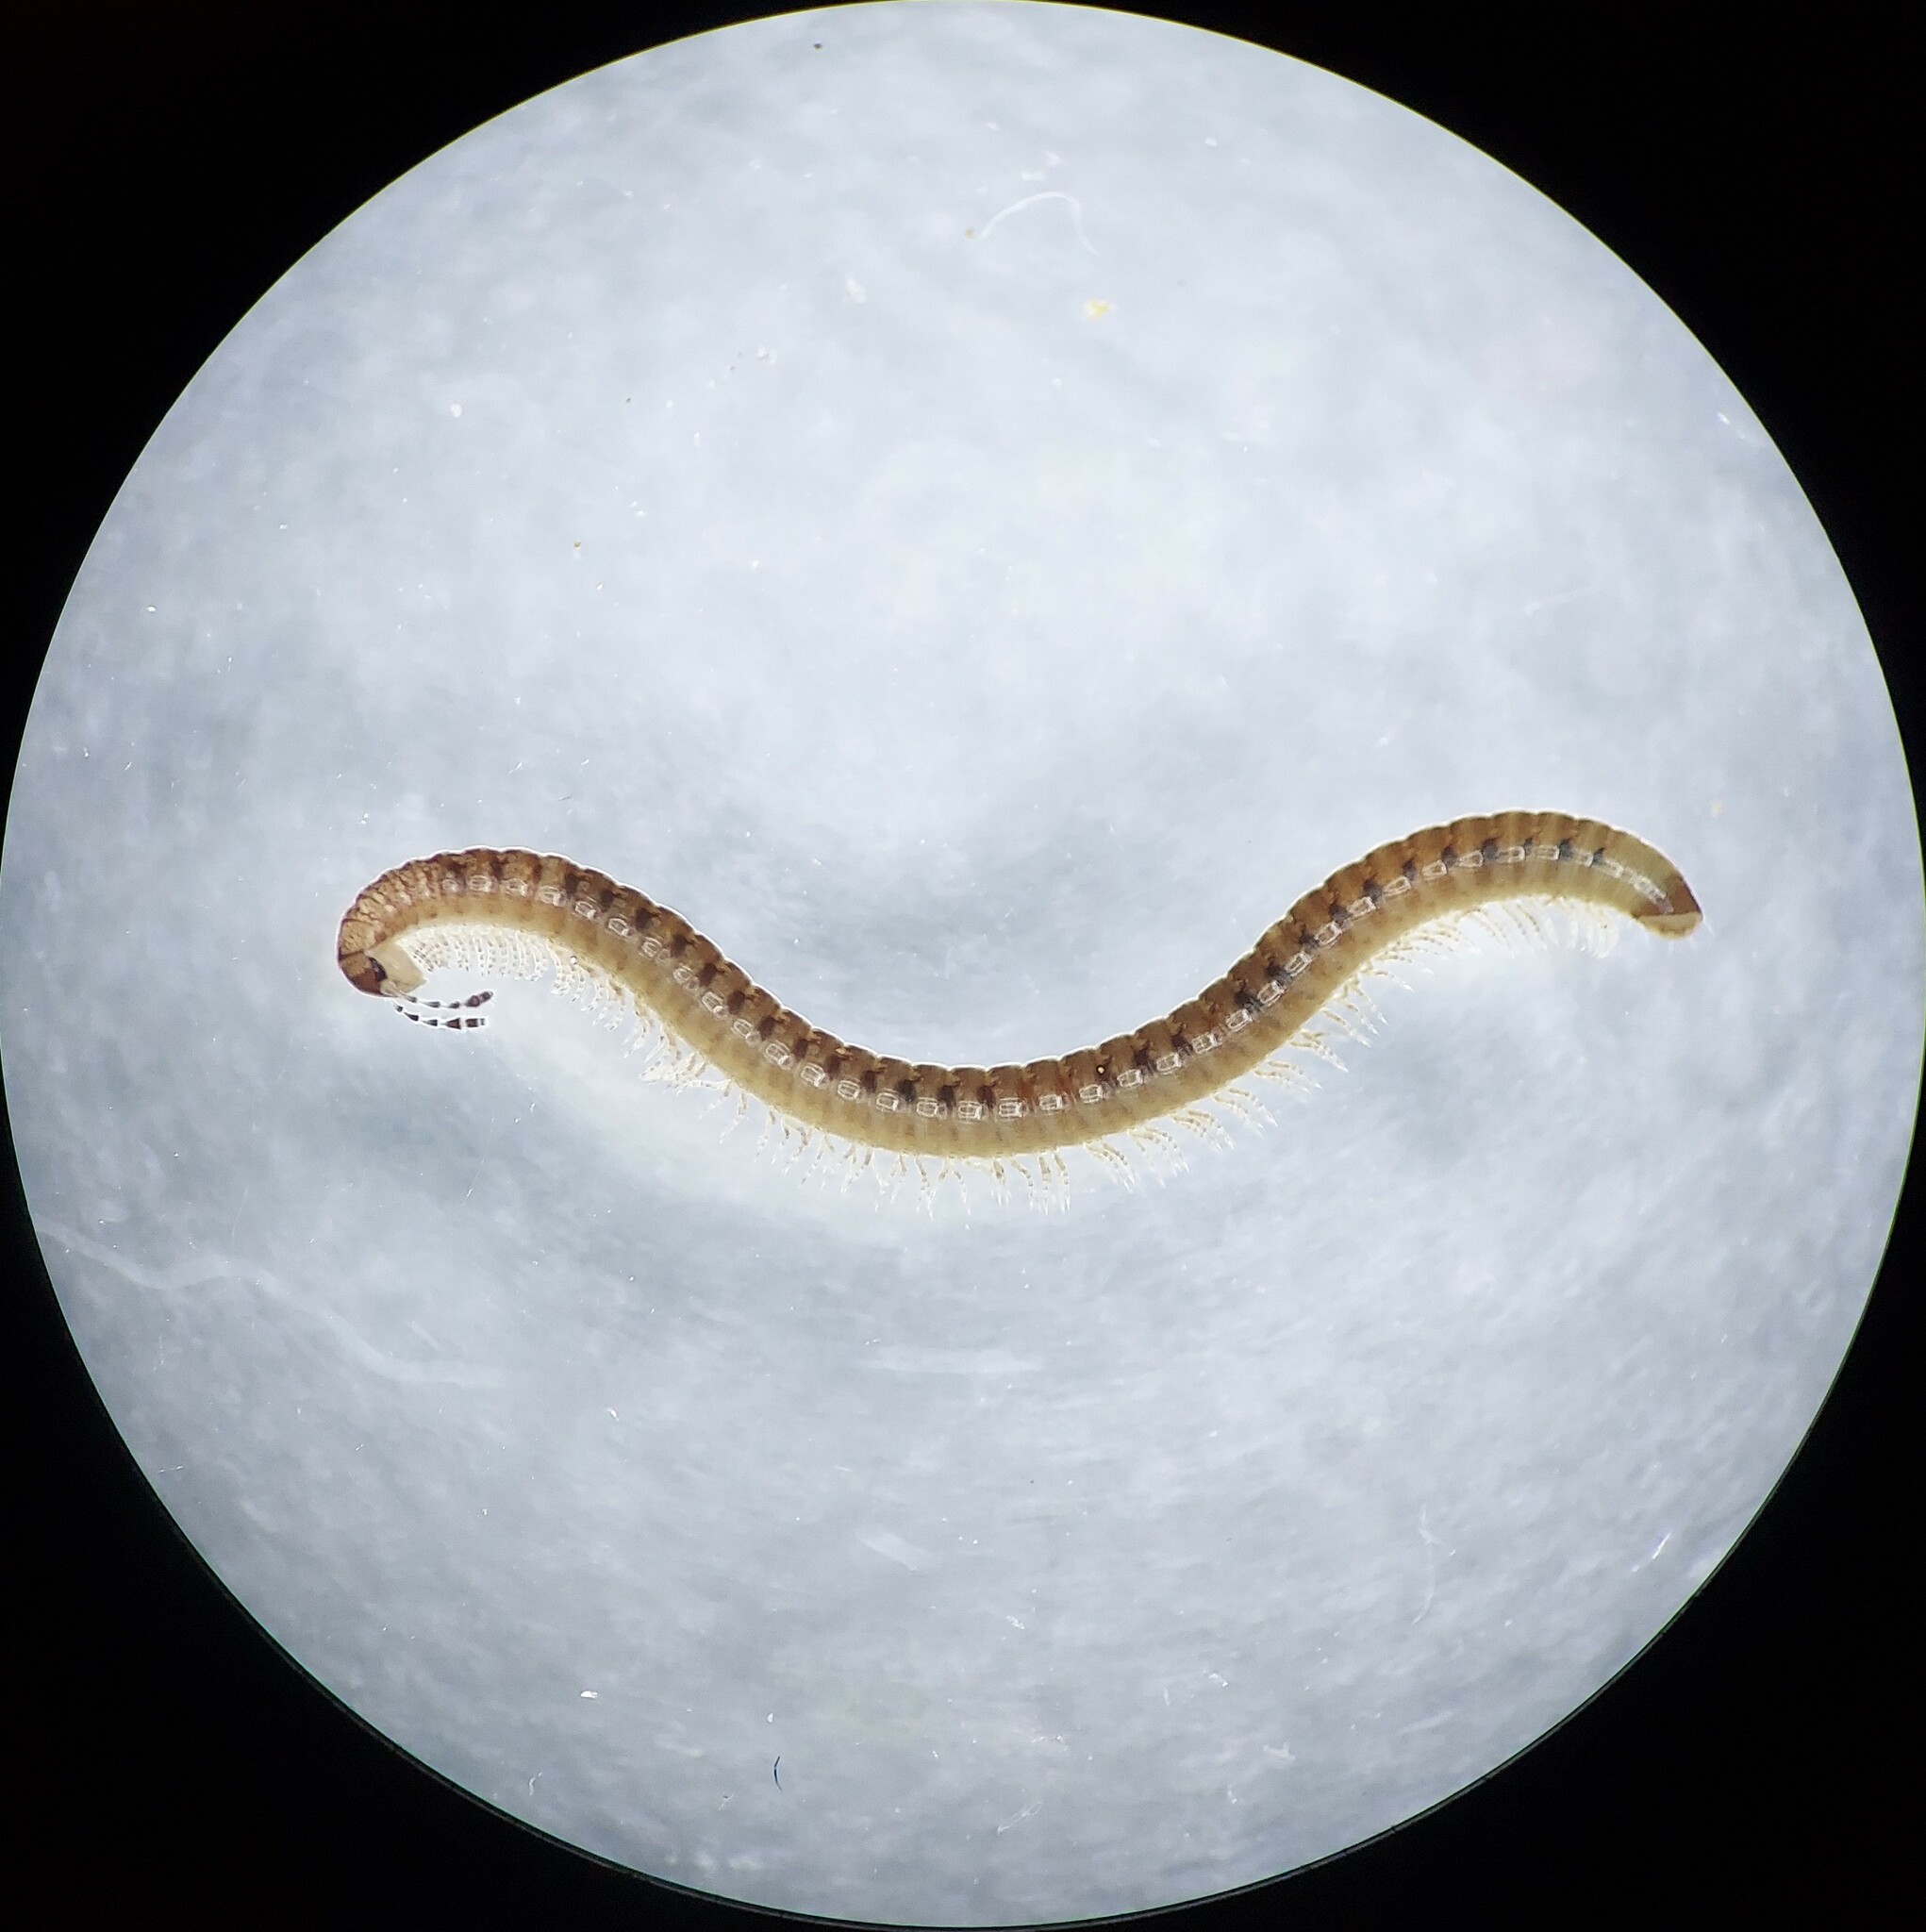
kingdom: Animalia
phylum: Arthropoda
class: Diplopoda
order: Julida
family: Blaniulidae
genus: Virgoiulus
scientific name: Virgoiulus minutus
